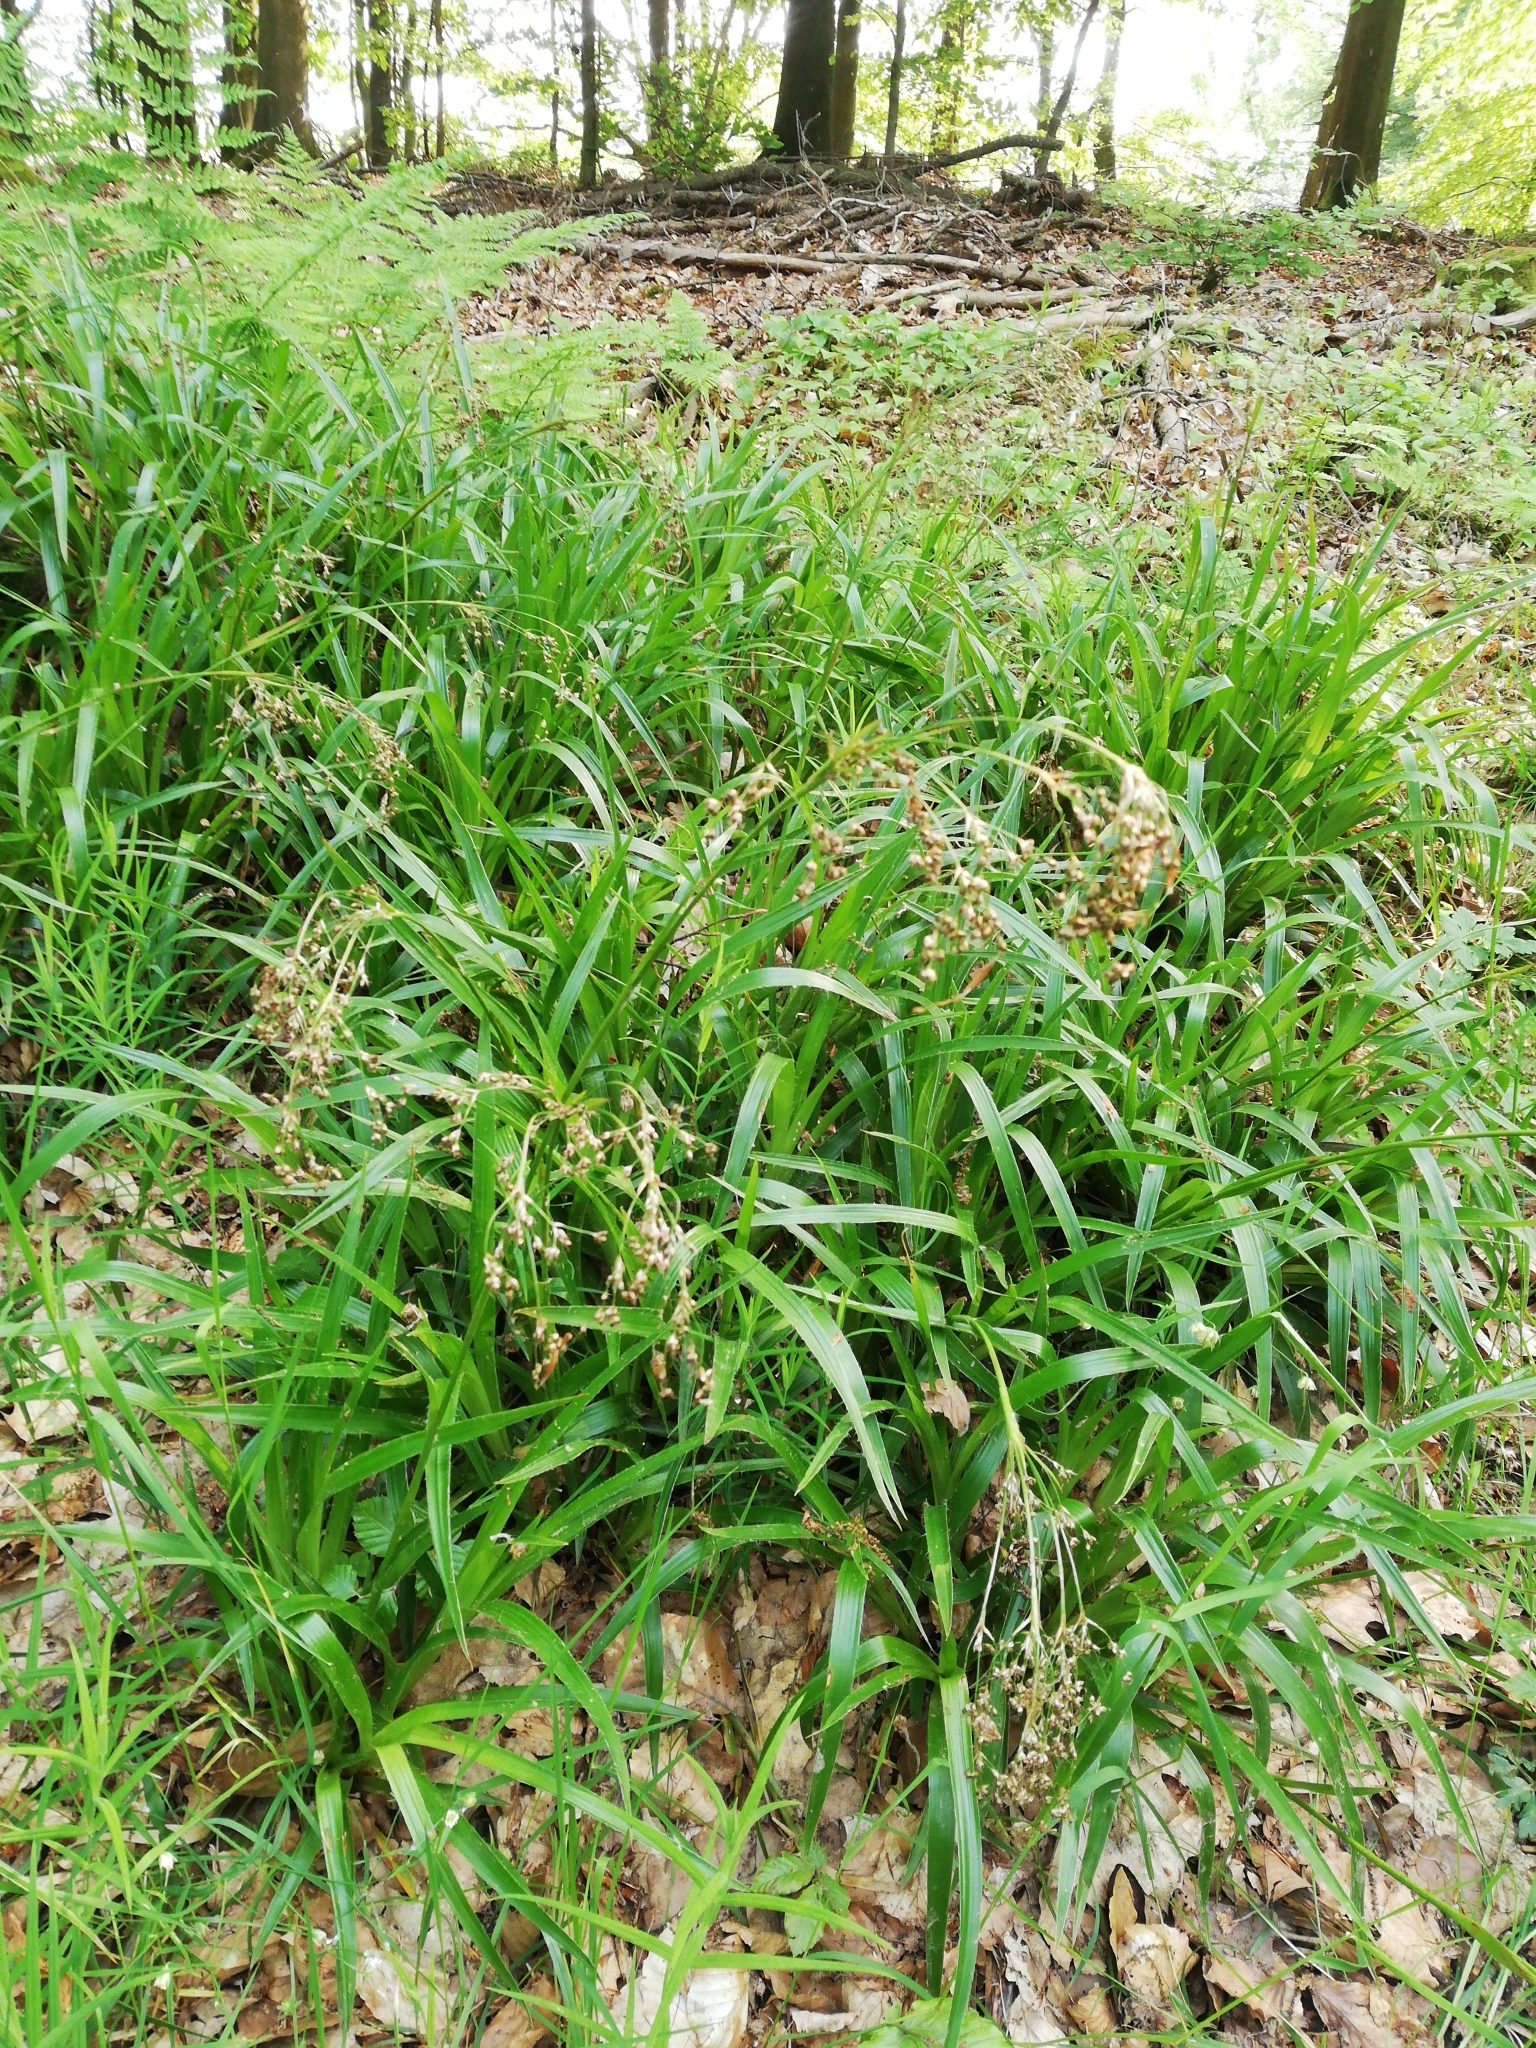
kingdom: Plantae
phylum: Tracheophyta
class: Liliopsida
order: Poales
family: Juncaceae
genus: Luzula
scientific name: Luzula sylvatica
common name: Great wood-rush
